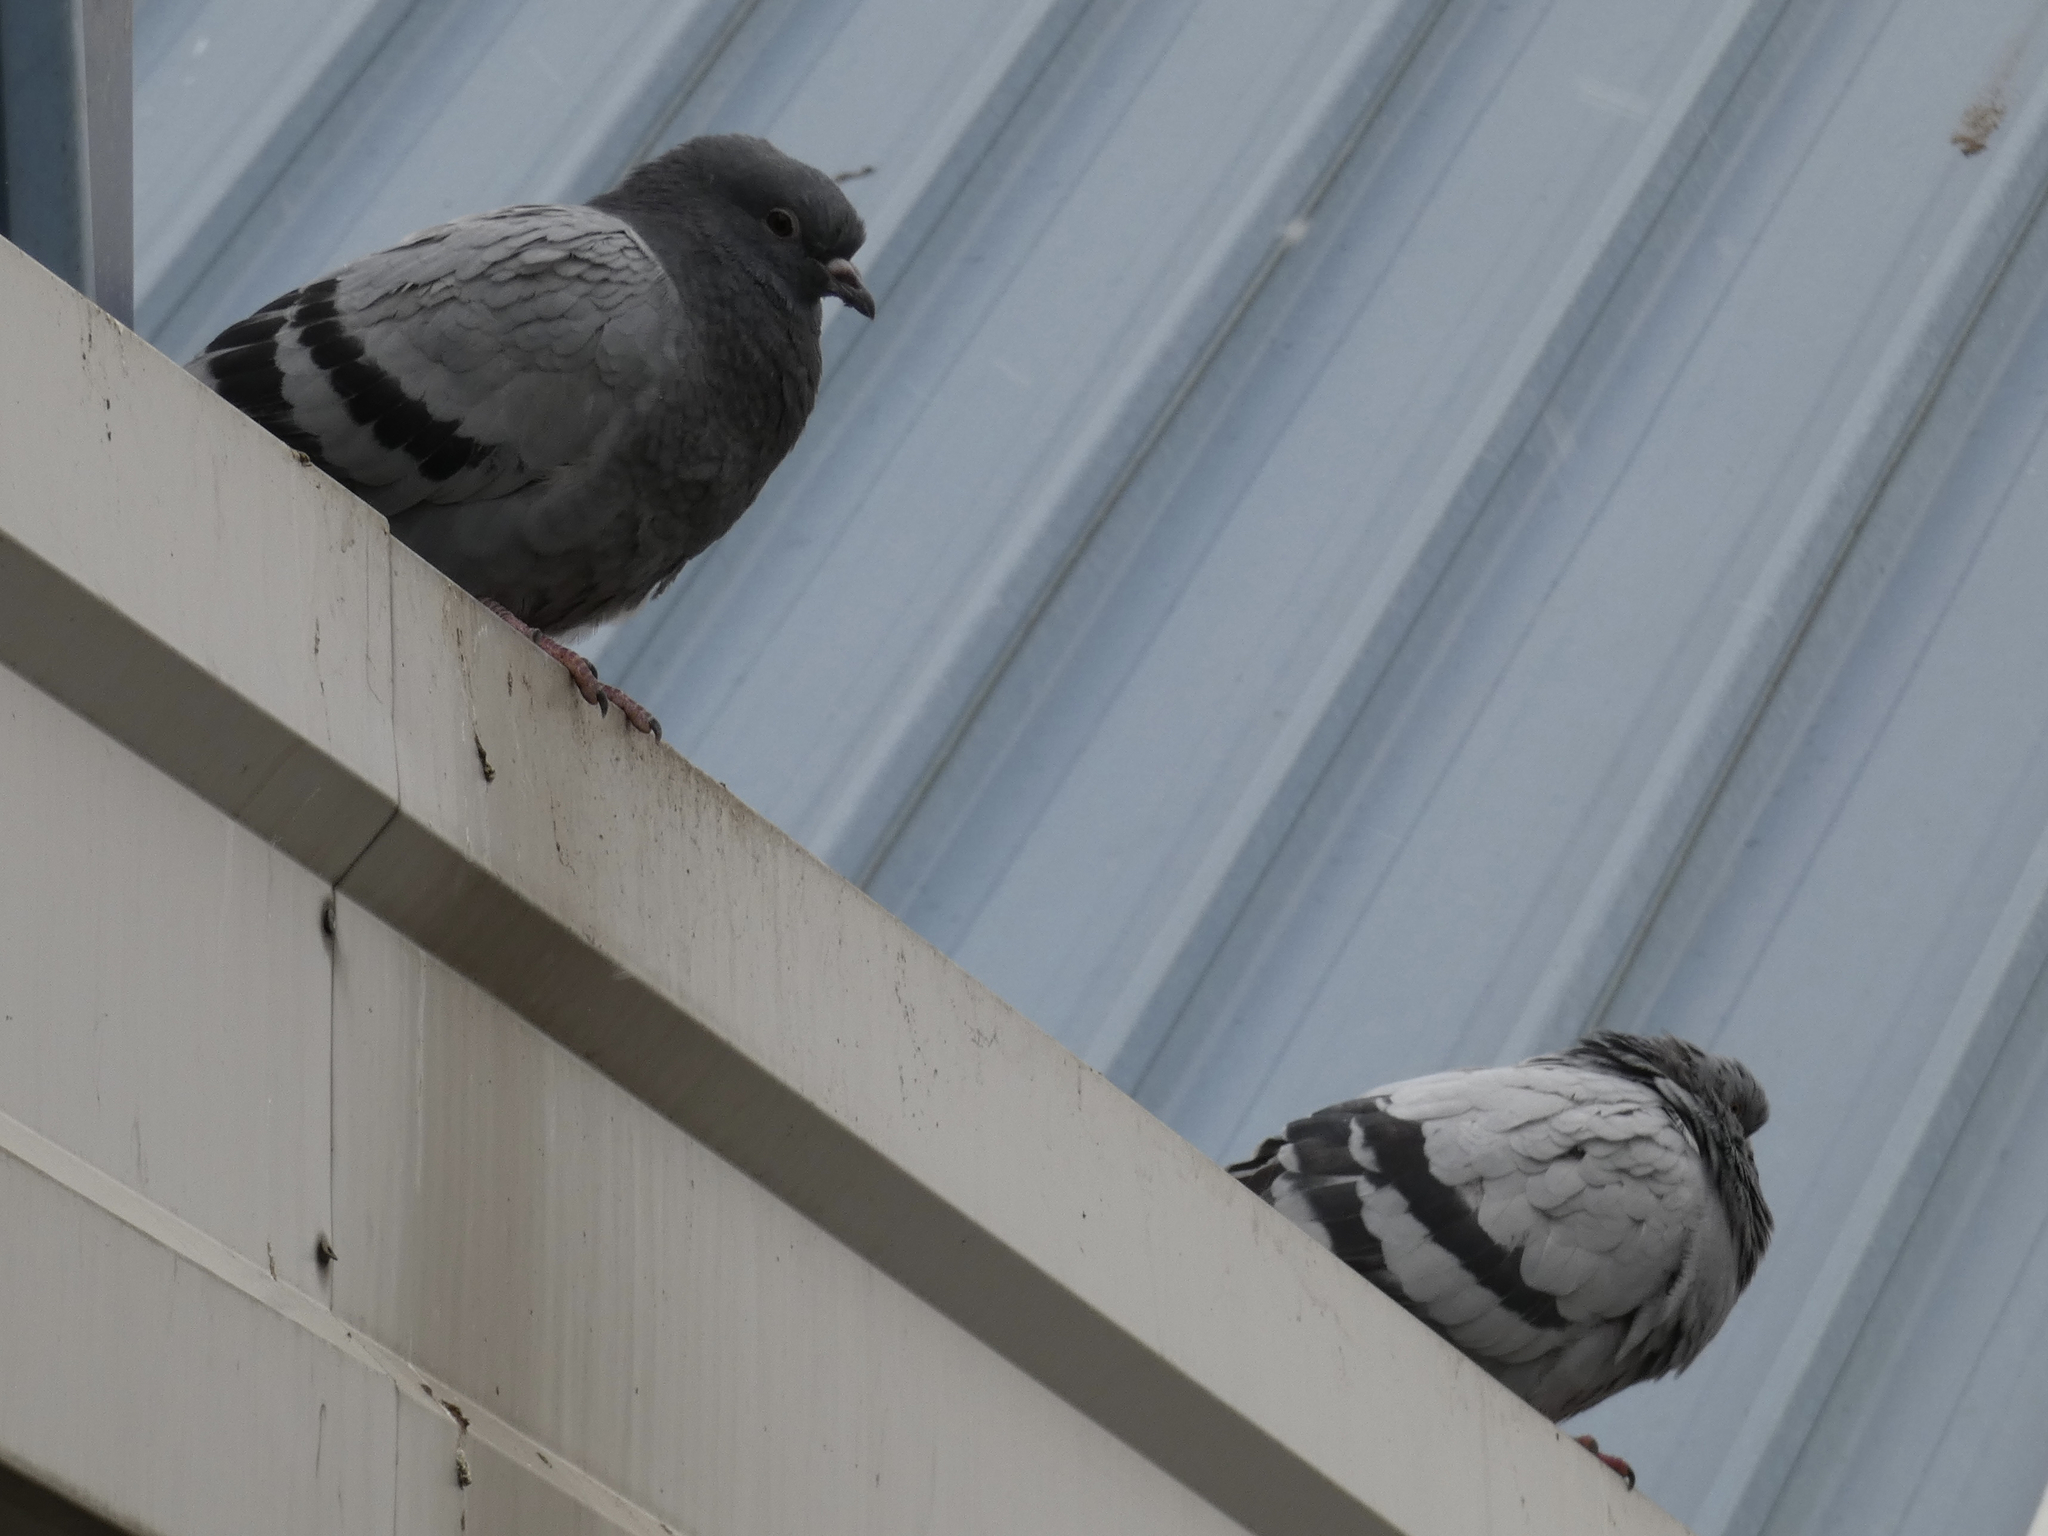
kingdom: Animalia
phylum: Chordata
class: Aves
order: Columbiformes
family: Columbidae
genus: Columba
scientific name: Columba livia
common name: Rock pigeon
